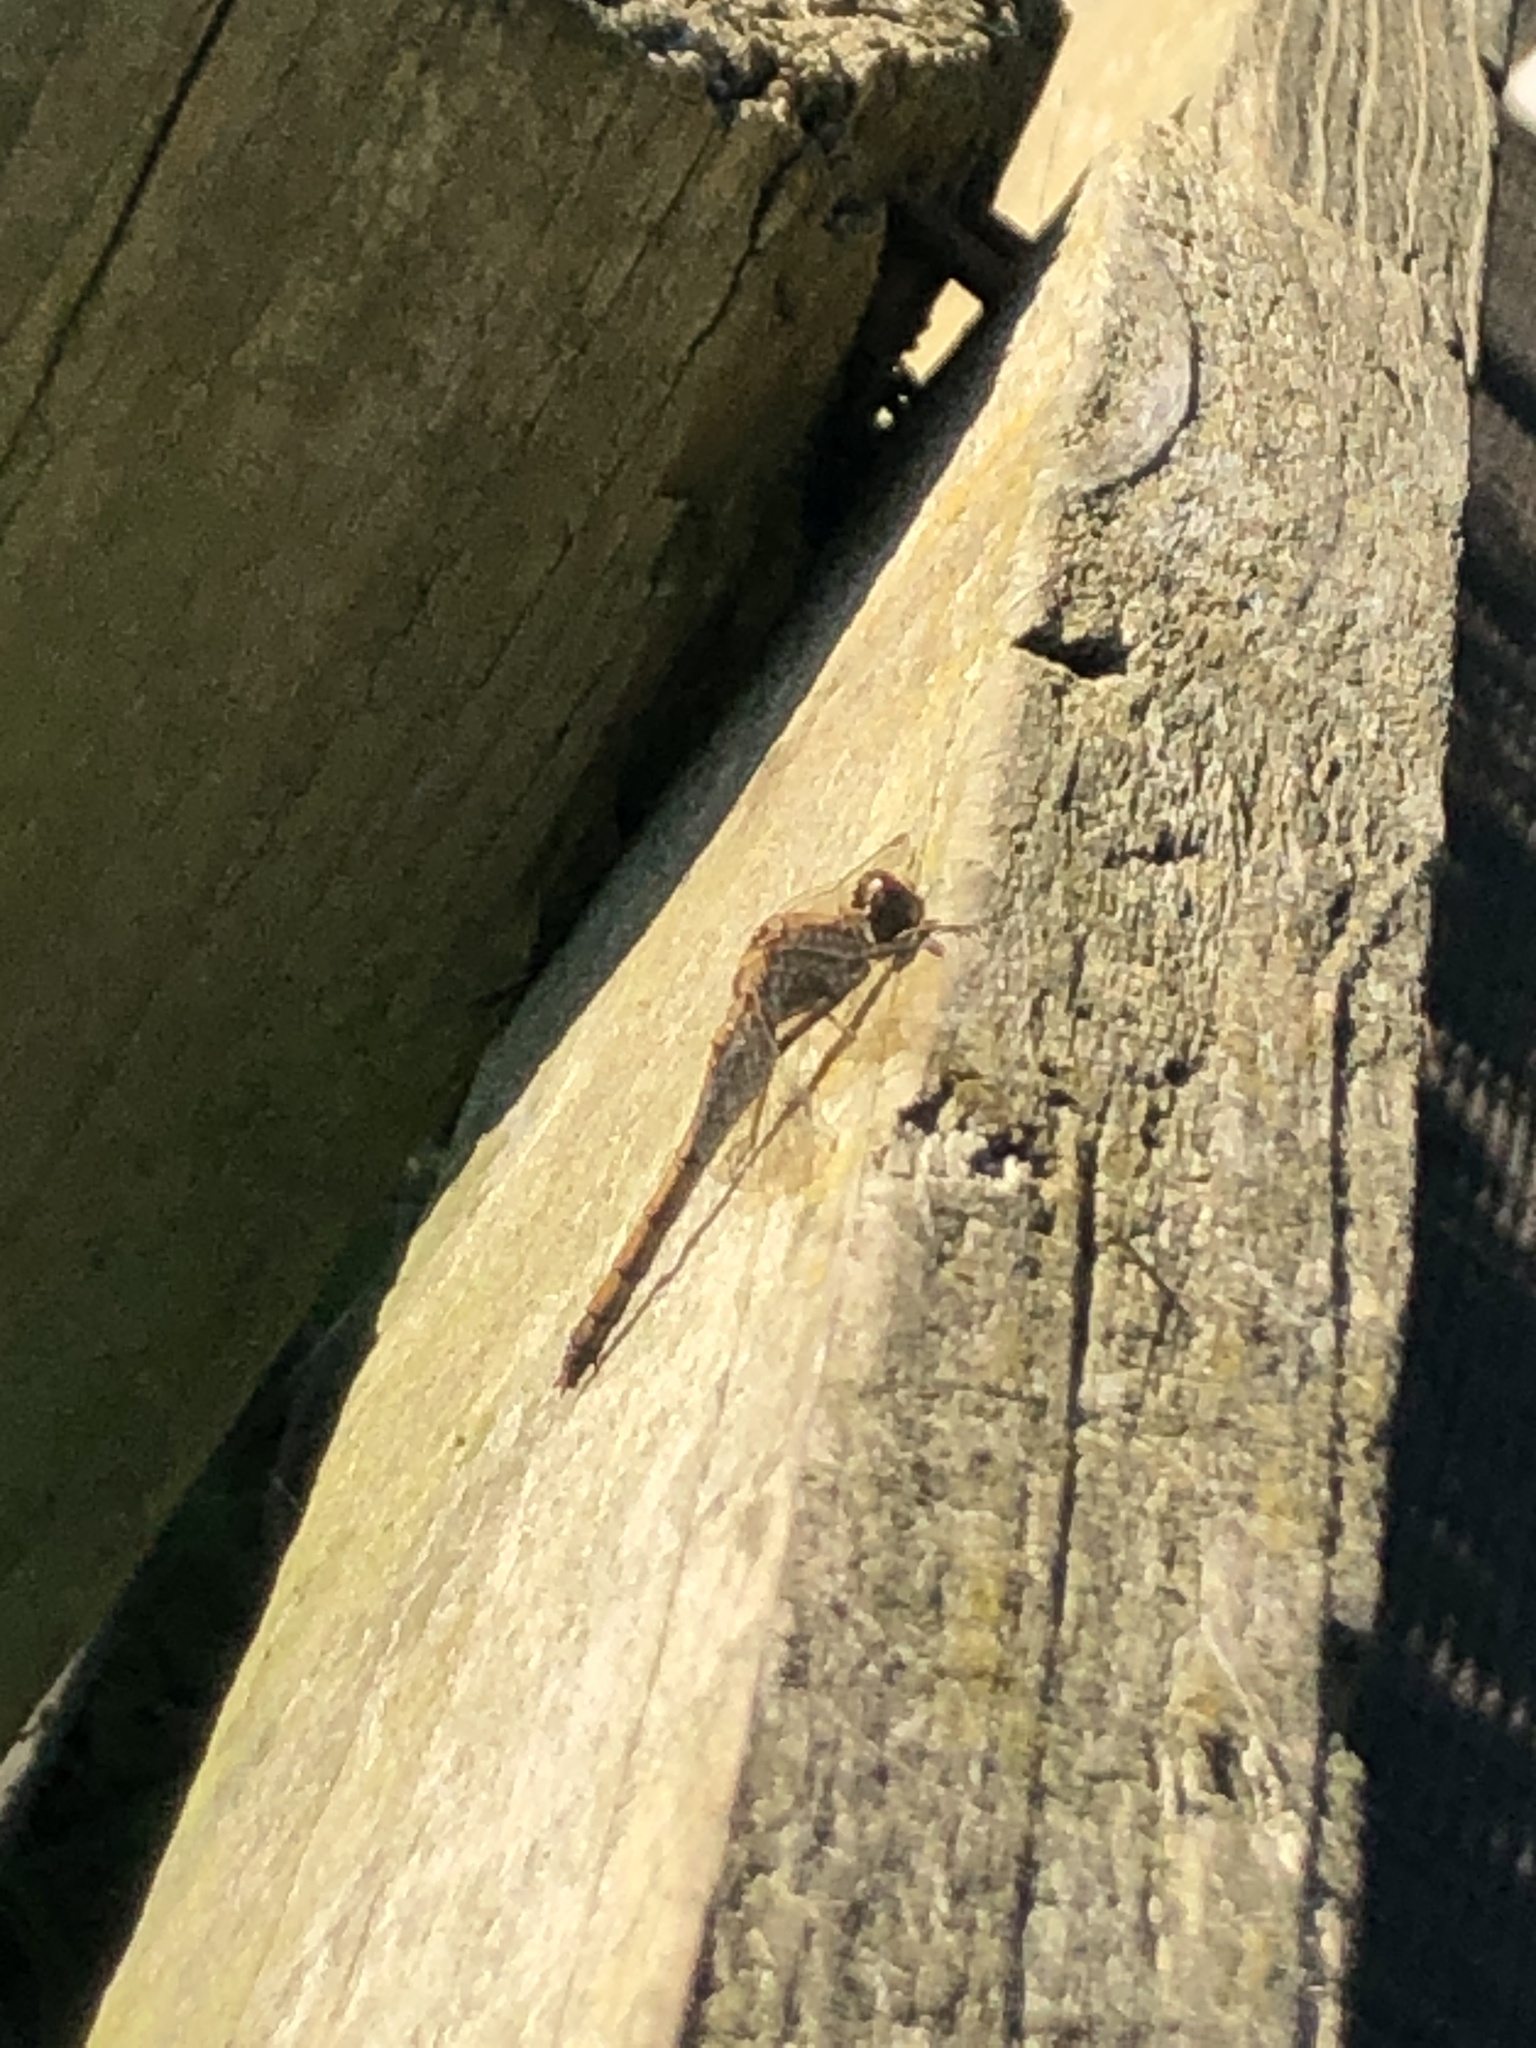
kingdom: Animalia
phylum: Arthropoda
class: Insecta
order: Odonata
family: Libellulidae
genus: Sympetrum
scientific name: Sympetrum striolatum
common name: Common darter
